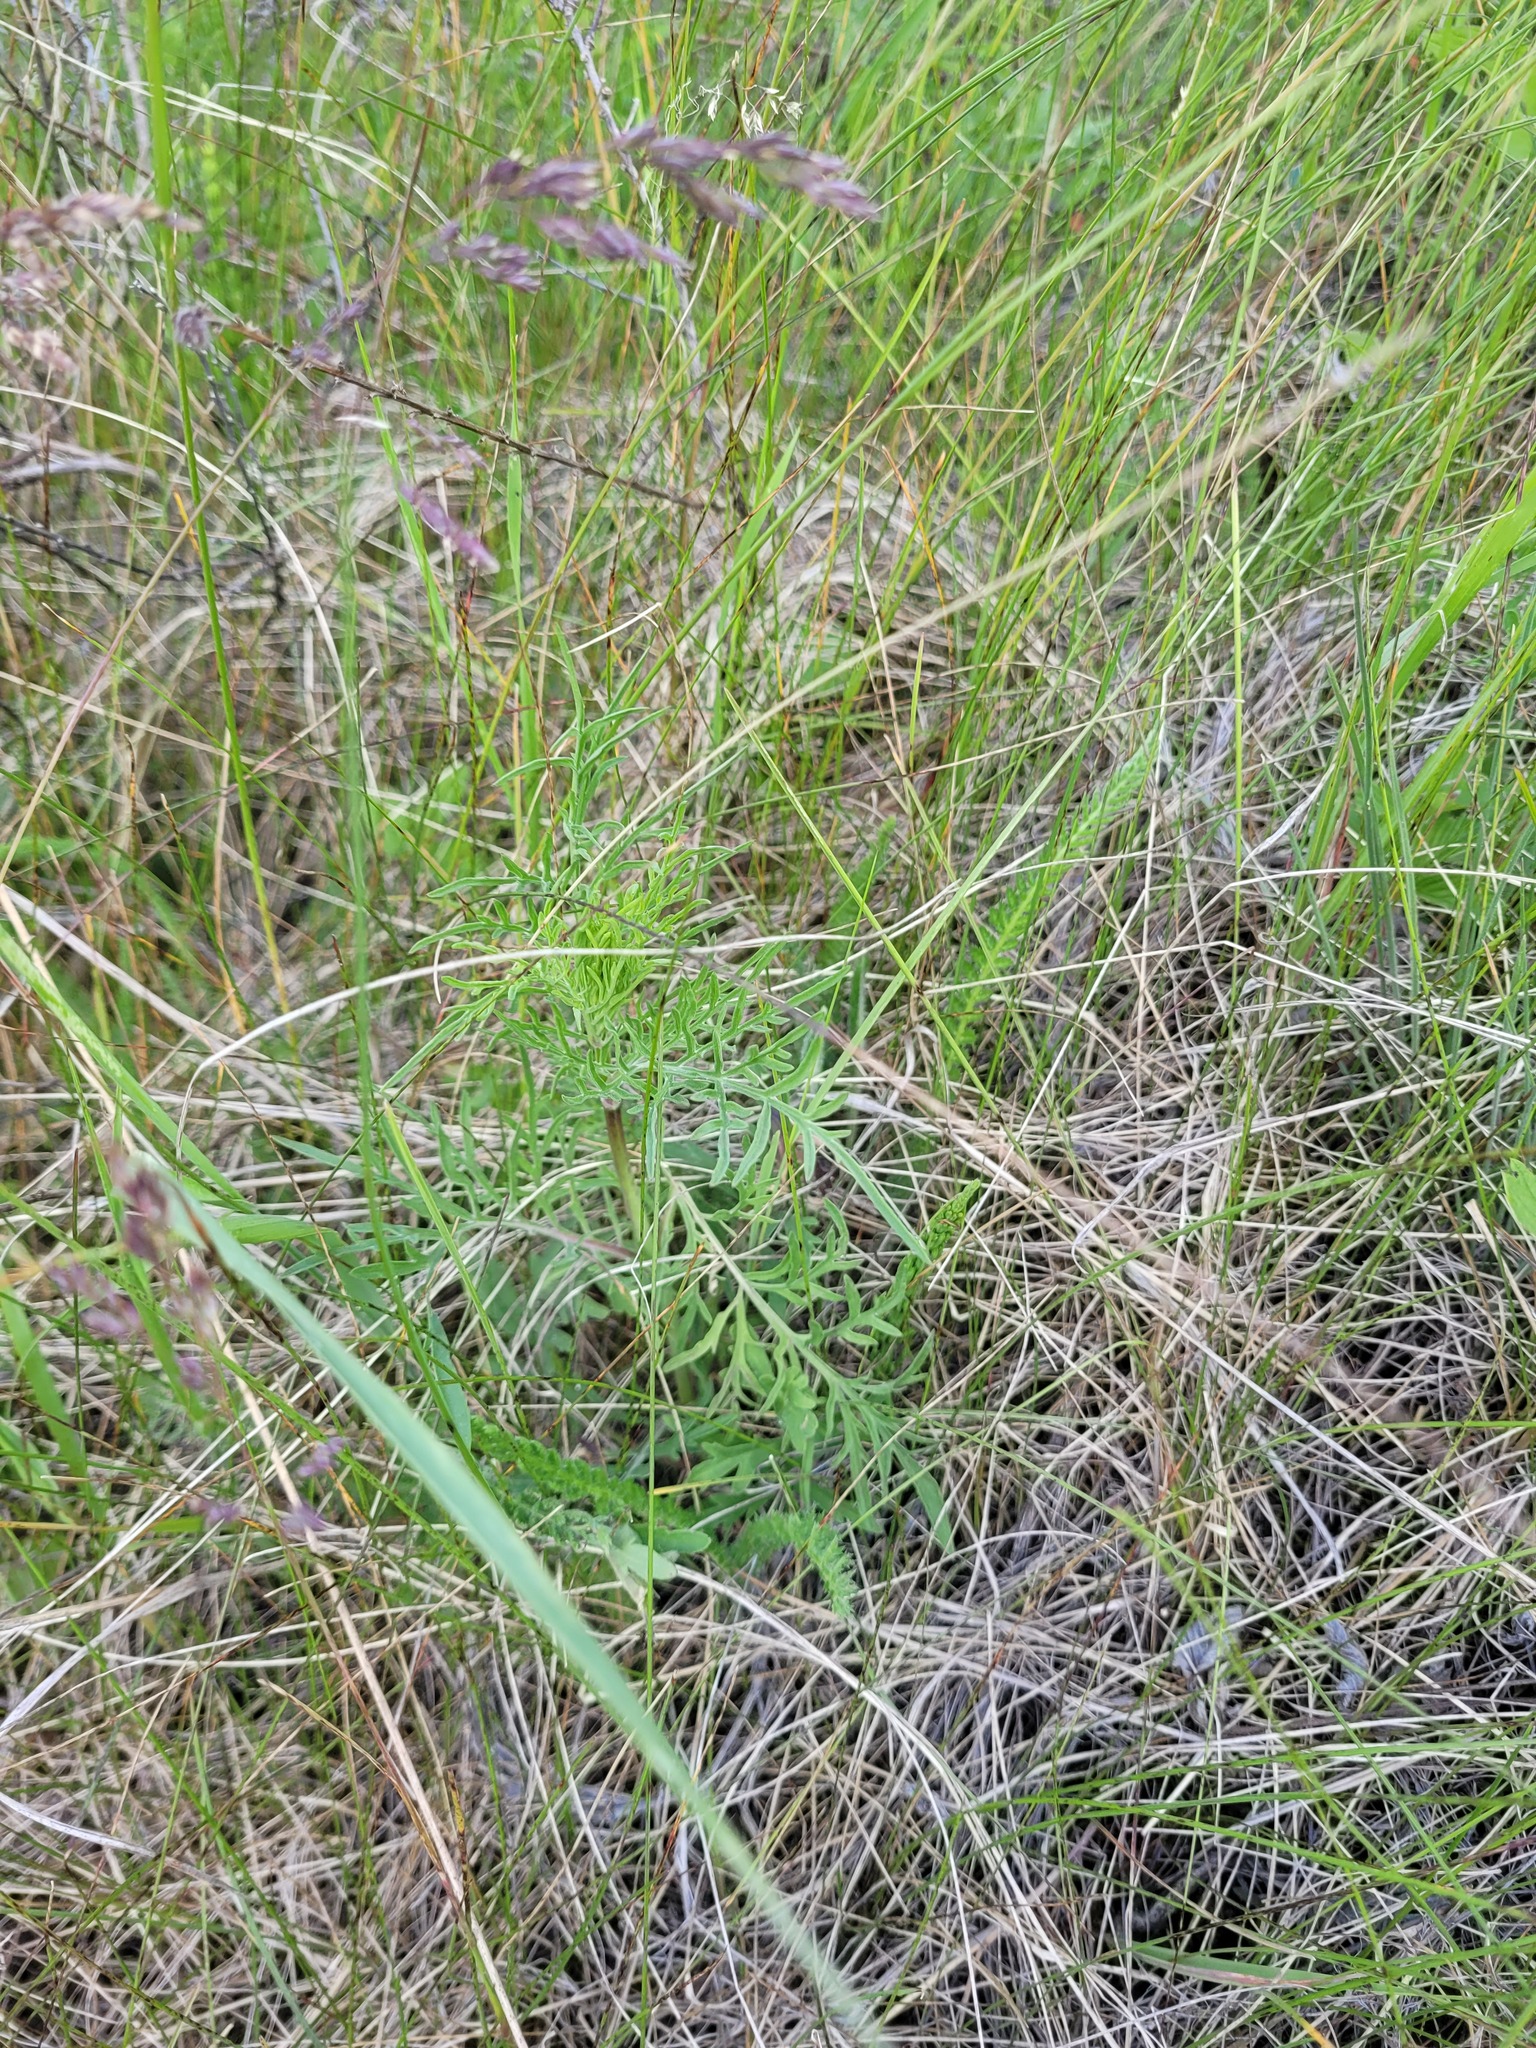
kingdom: Plantae
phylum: Tracheophyta
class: Magnoliopsida
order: Dipsacales
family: Caprifoliaceae
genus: Scabiosa
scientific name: Scabiosa ochroleuca
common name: Cream pincushions
